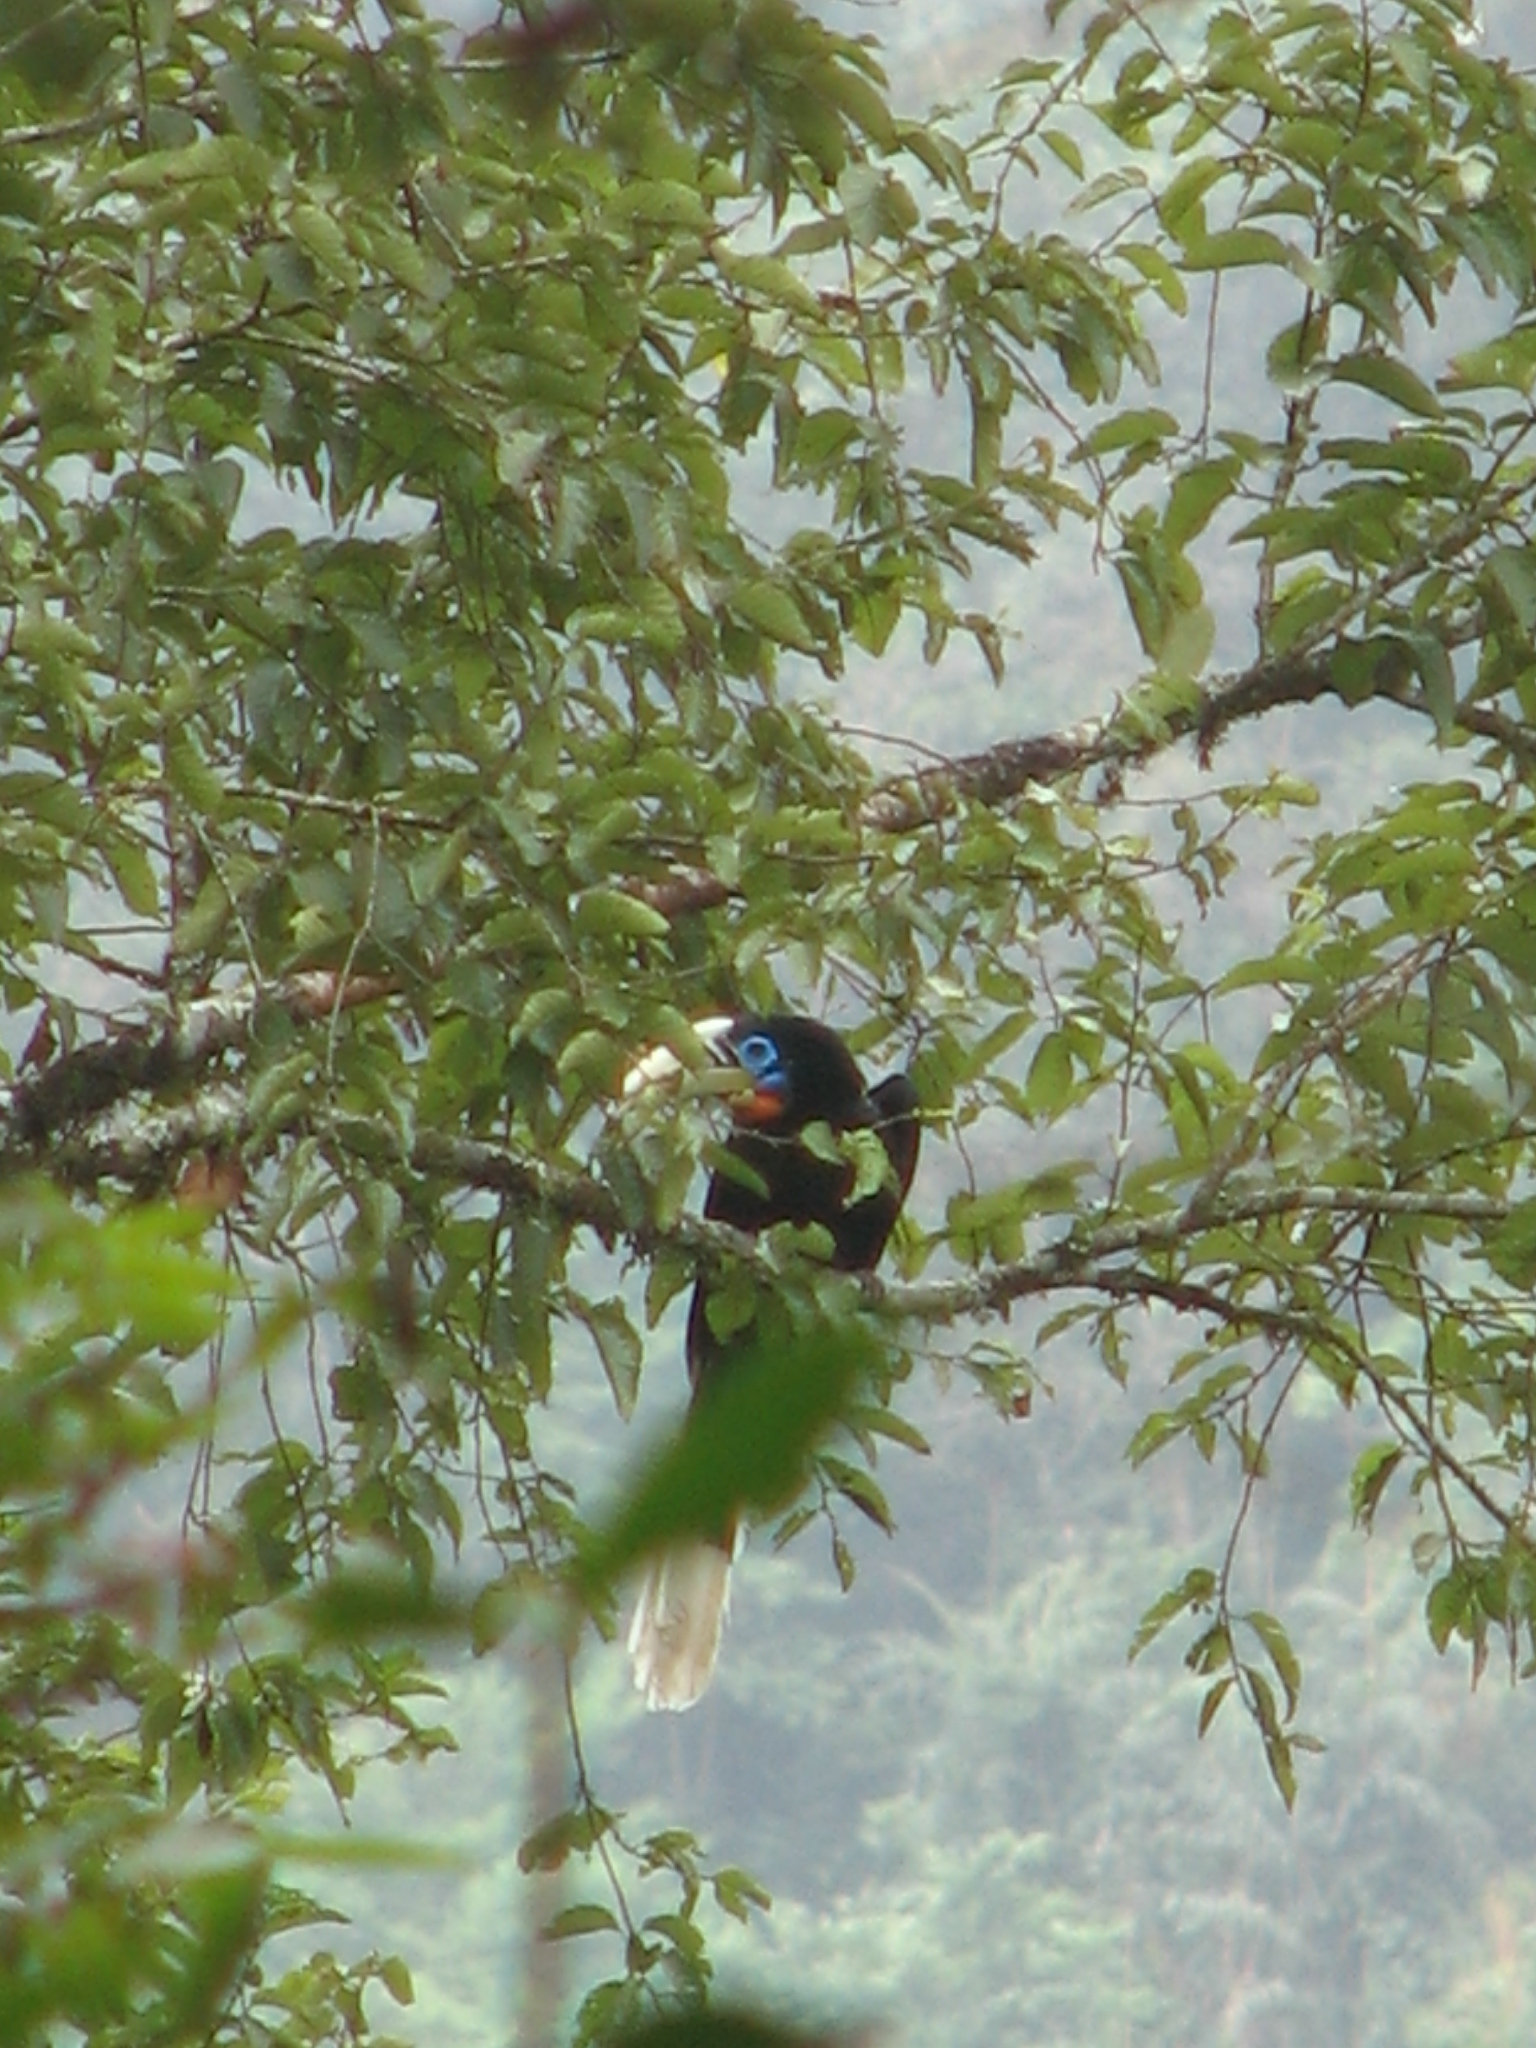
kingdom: Animalia
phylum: Chordata
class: Aves
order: Bucerotiformes
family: Bucerotidae
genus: Aceros
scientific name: Aceros nipalensis
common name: Rufous-necked hornbill
